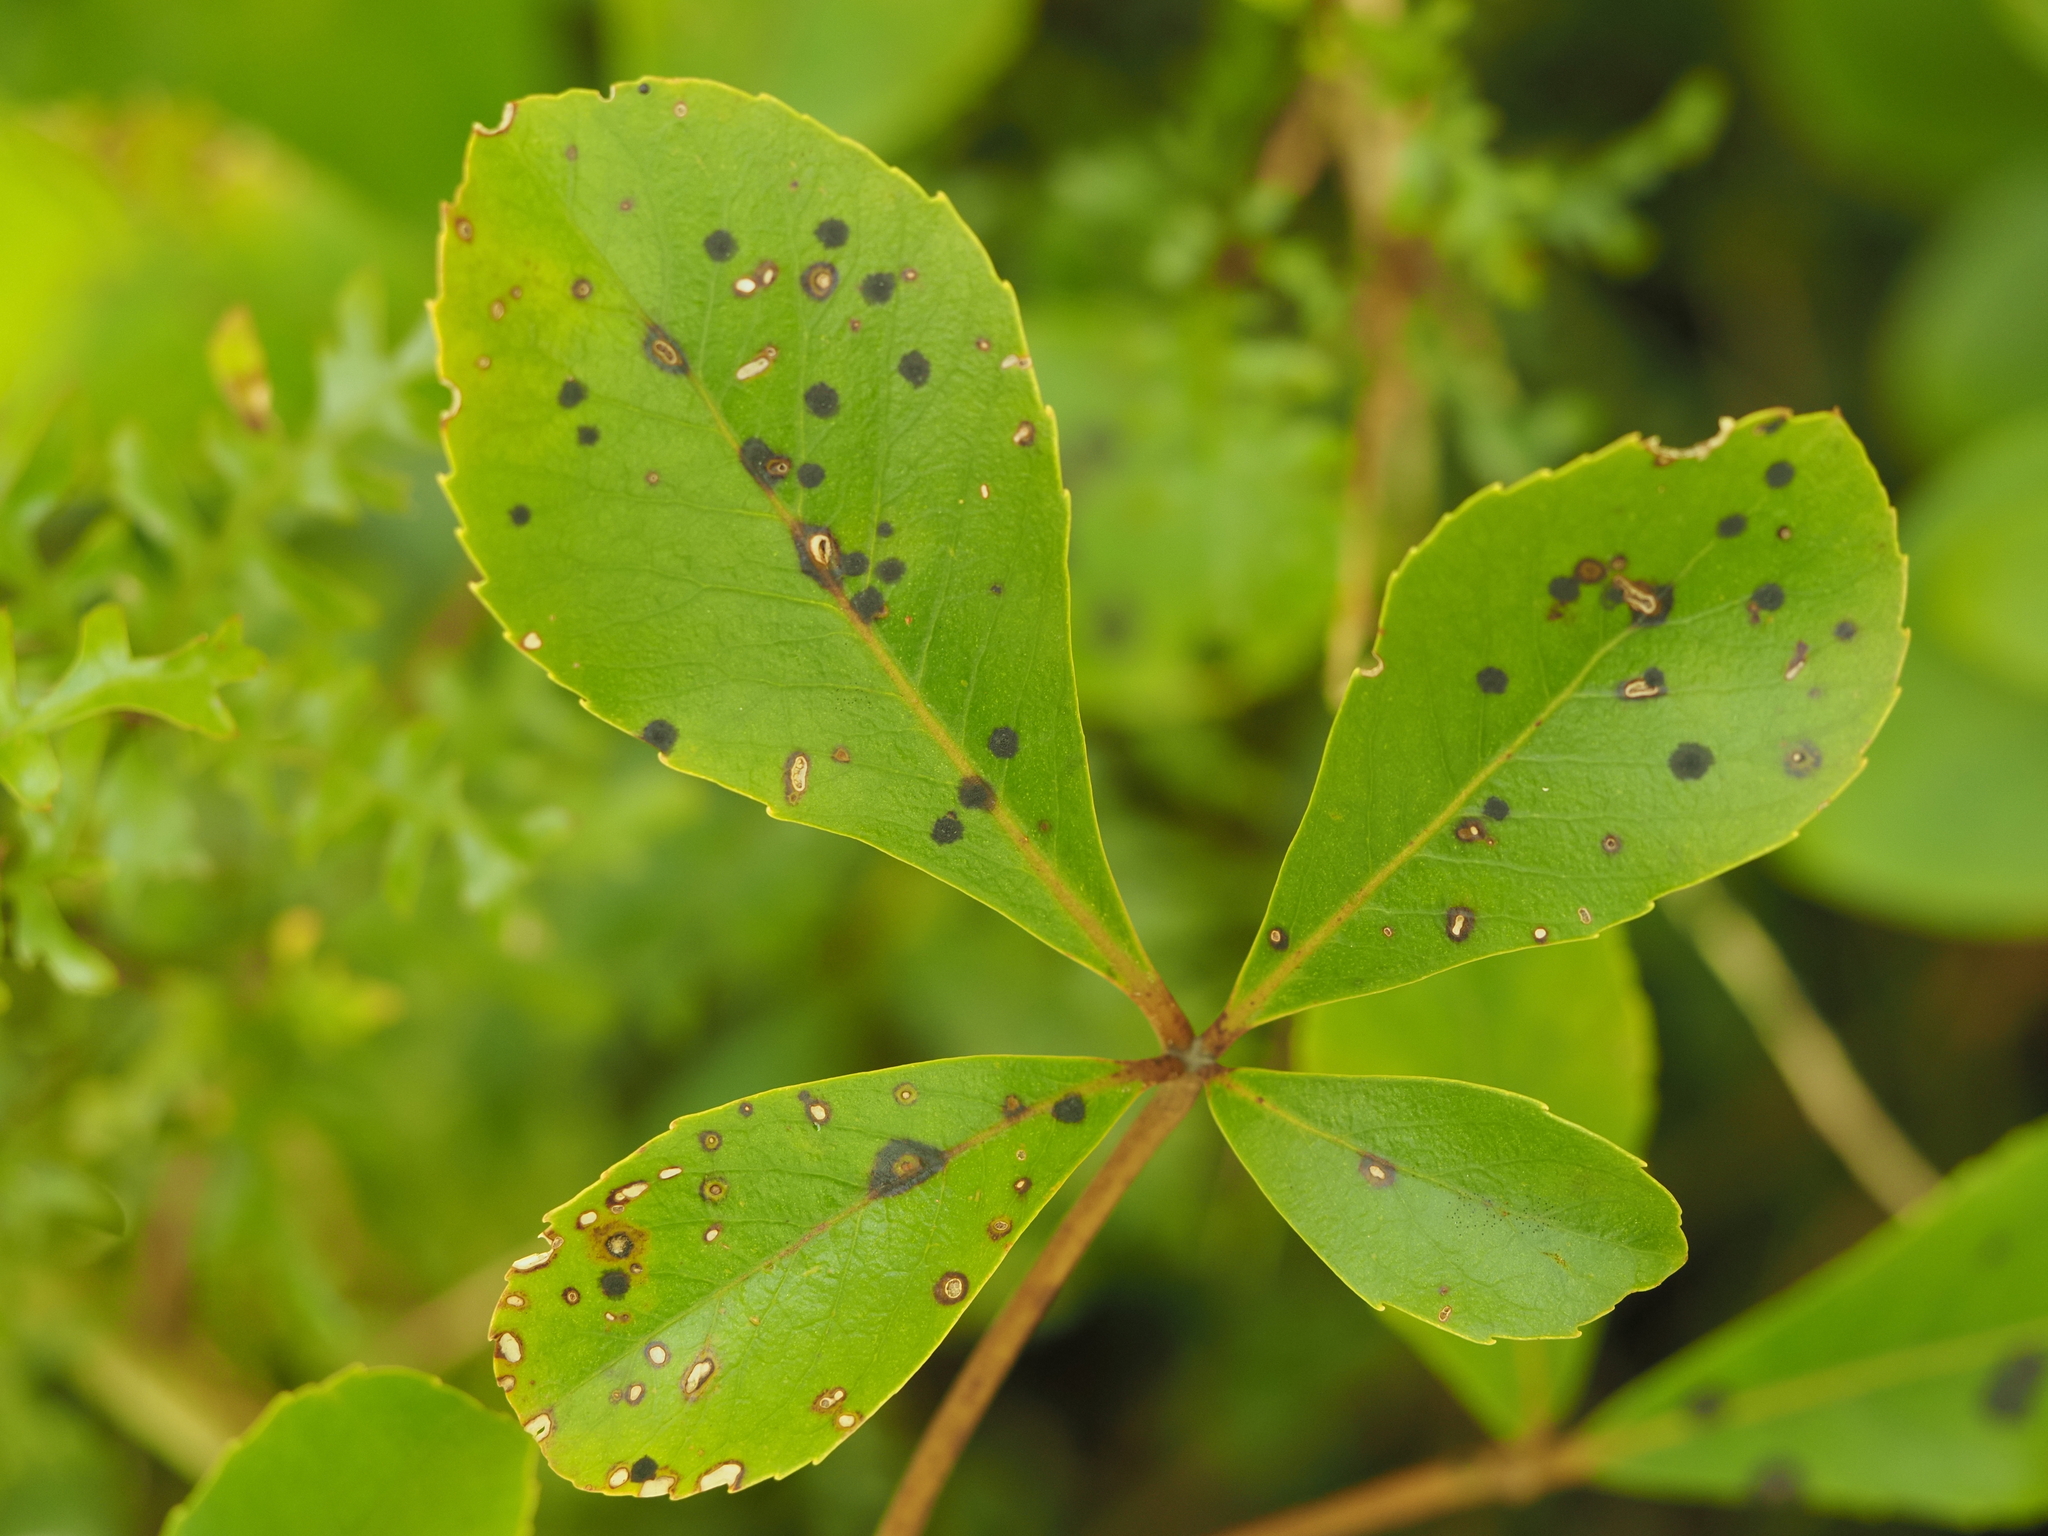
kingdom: Plantae
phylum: Tracheophyta
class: Magnoliopsida
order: Apiales
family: Araliaceae
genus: Neopanax
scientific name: Neopanax colensoi
